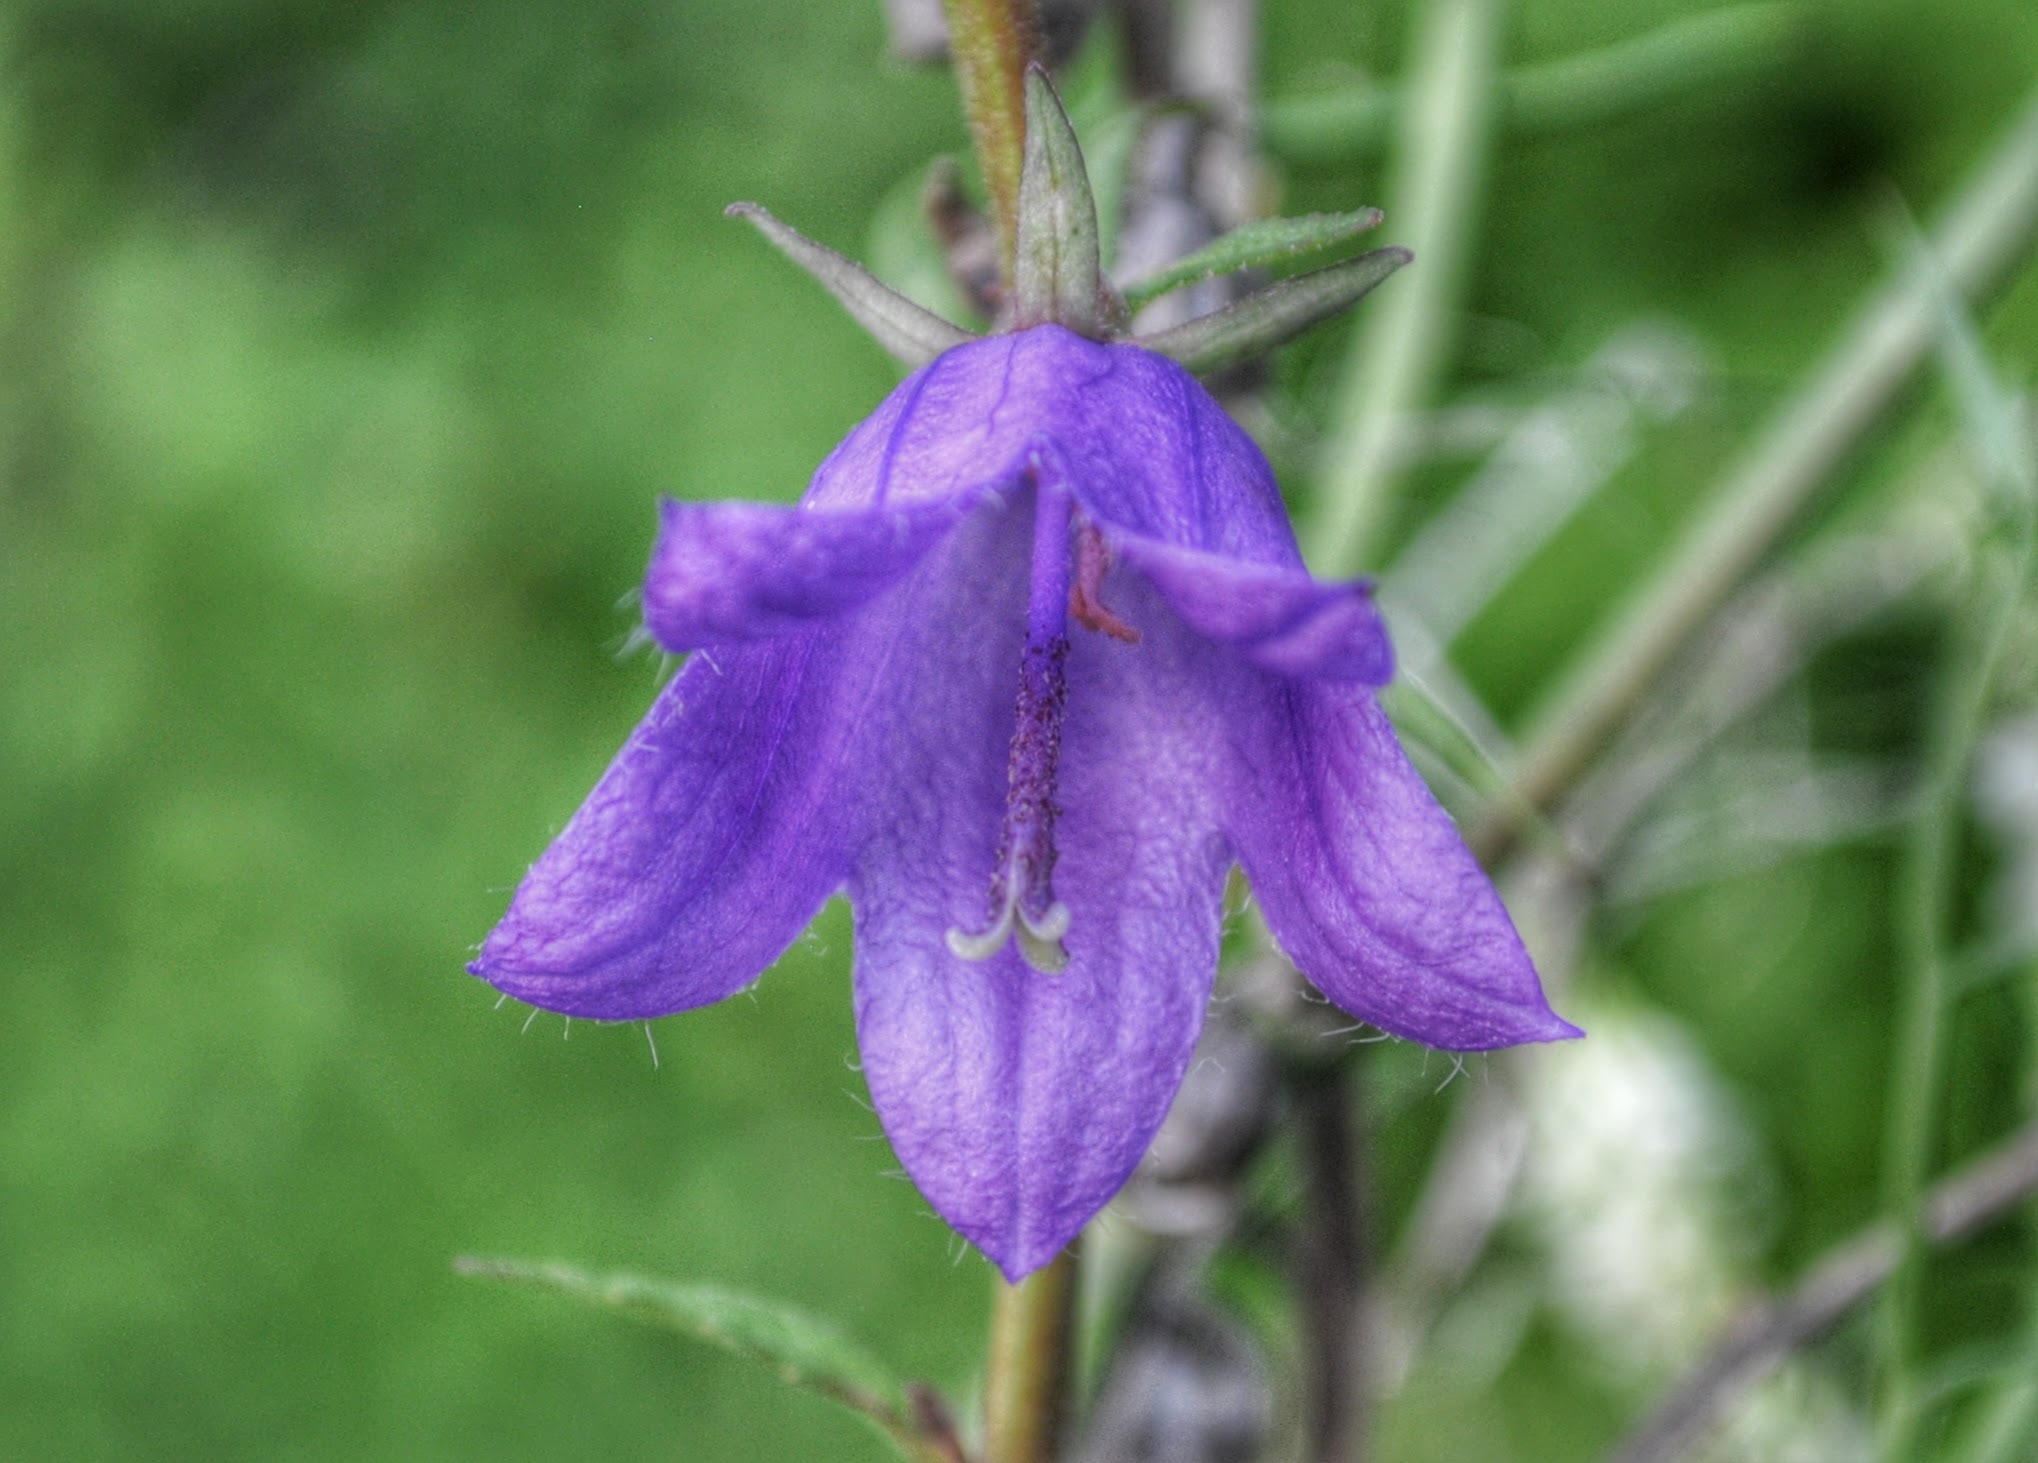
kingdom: Plantae
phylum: Tracheophyta
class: Magnoliopsida
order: Asterales
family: Campanulaceae
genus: Campanula
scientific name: Campanula rapunculoides
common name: Creeping bellflower
